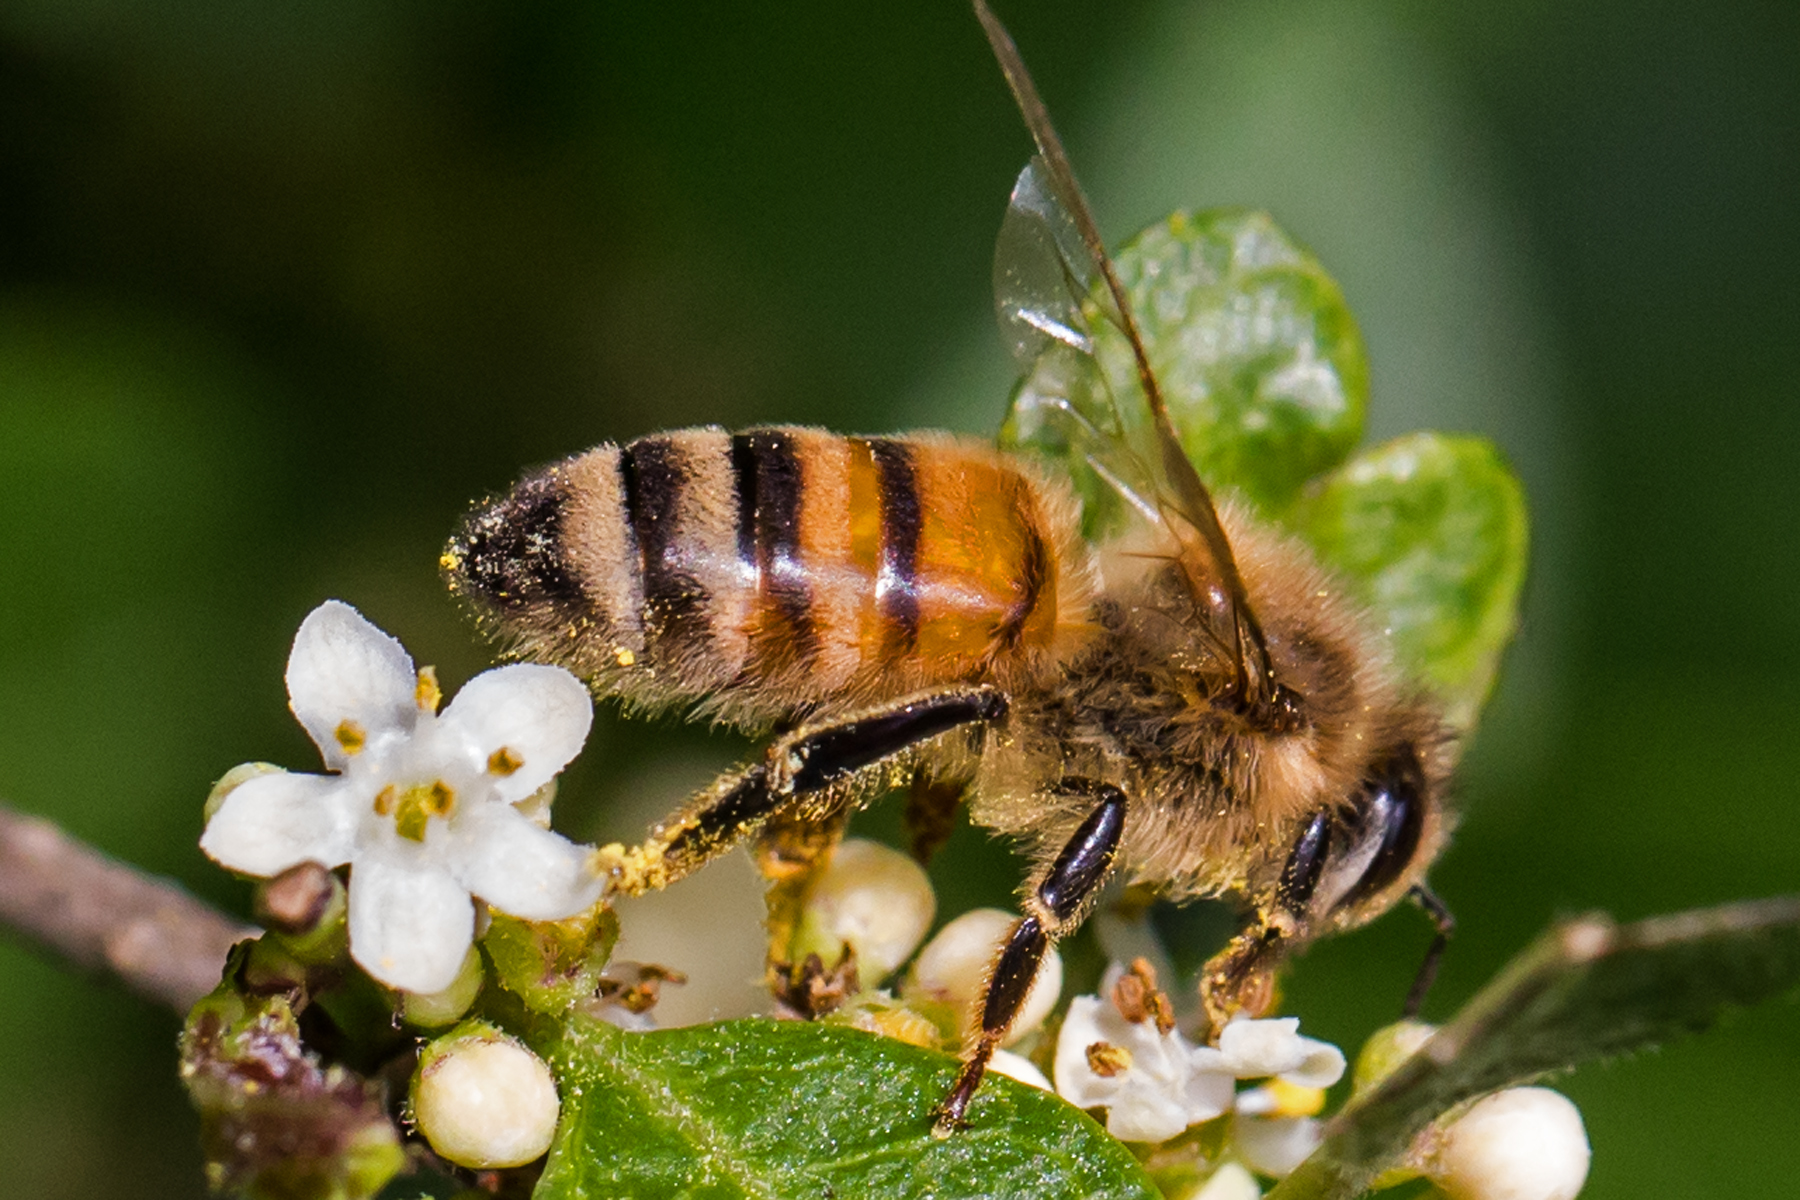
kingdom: Animalia
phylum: Arthropoda
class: Insecta
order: Hymenoptera
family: Apidae
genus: Apis
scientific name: Apis mellifera
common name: Honey bee
